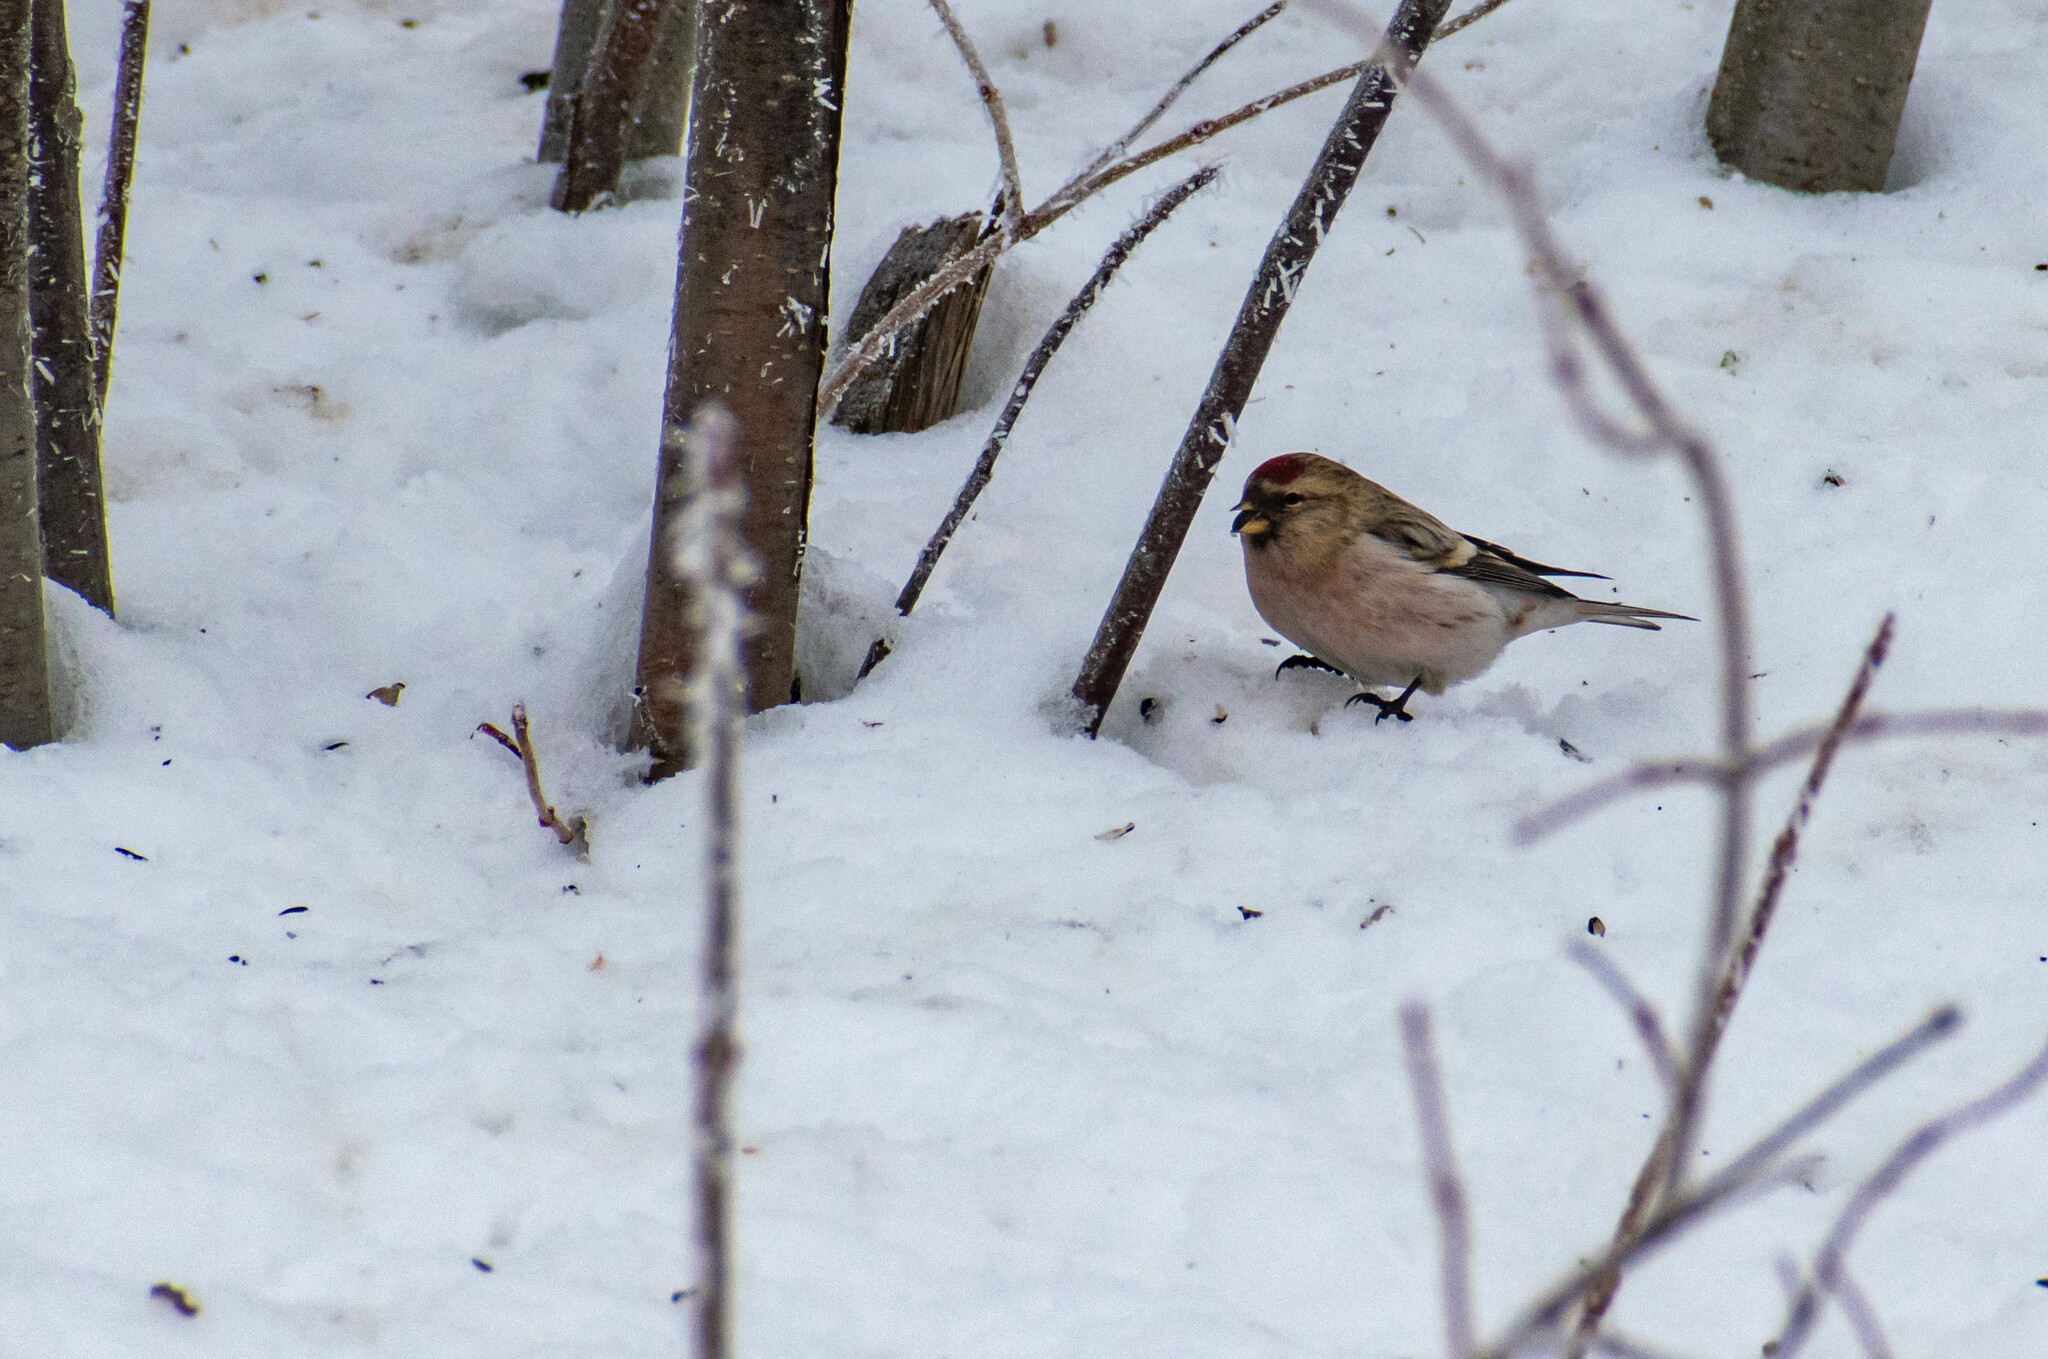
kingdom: Animalia
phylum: Chordata
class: Aves
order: Passeriformes
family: Fringillidae
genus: Acanthis
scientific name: Acanthis hornemanni
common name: Arctic redpoll
